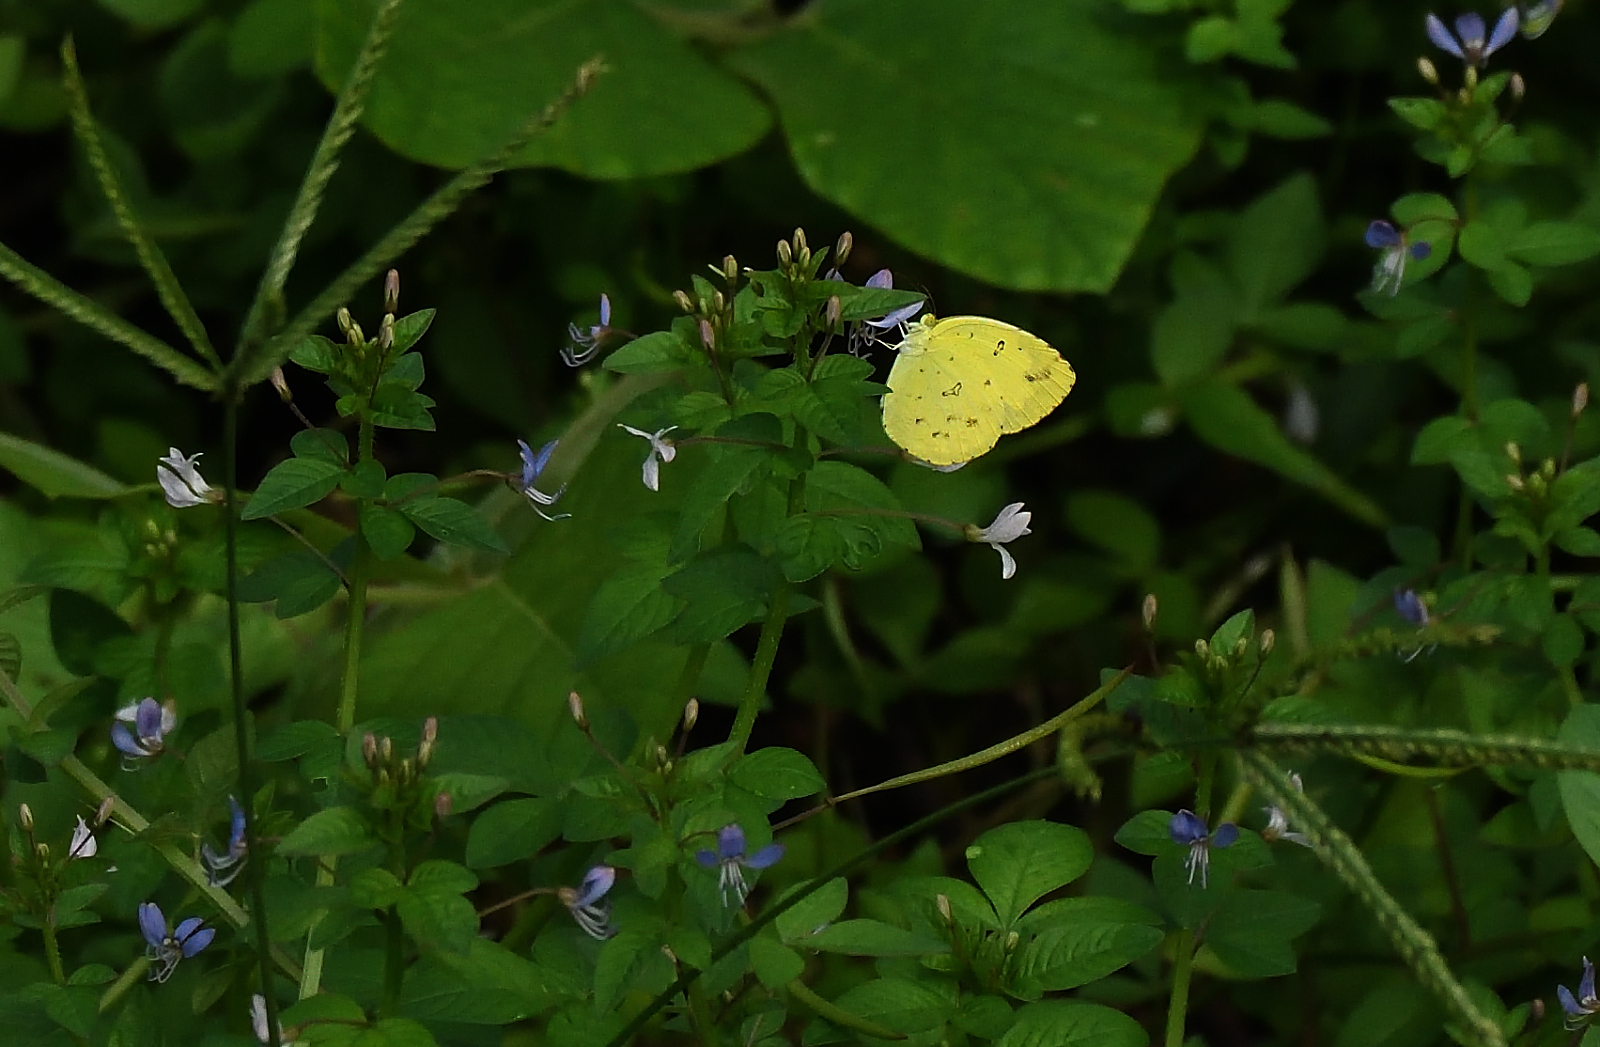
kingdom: Animalia
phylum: Arthropoda
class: Insecta
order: Lepidoptera
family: Pieridae
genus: Eurema
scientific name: Eurema hecabe
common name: Pale grass yellow
